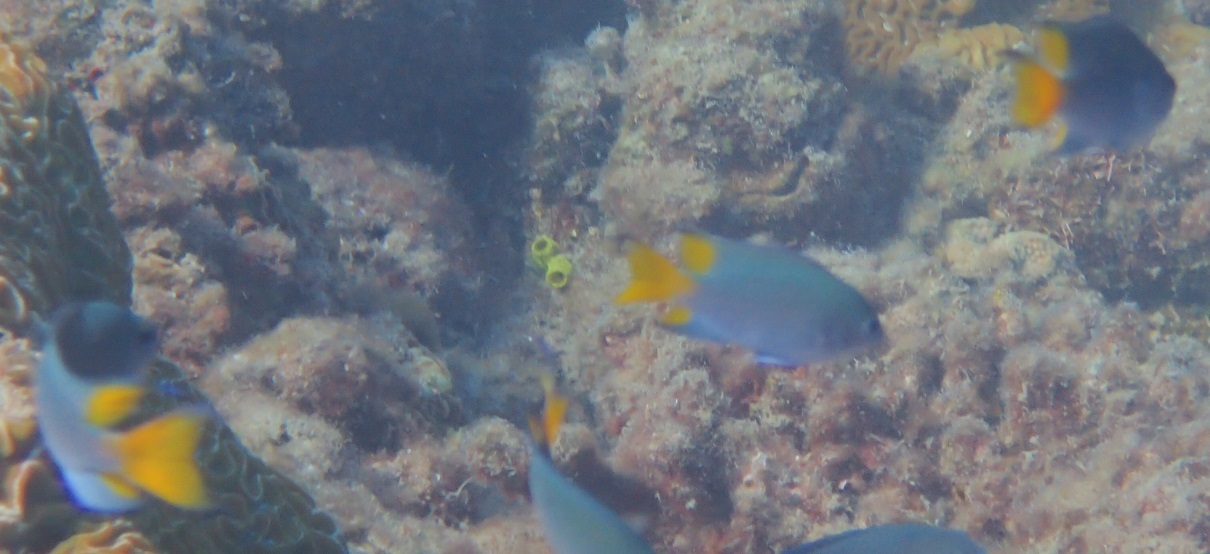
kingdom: Animalia
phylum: Chordata
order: Perciformes
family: Pomacentridae
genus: Neopomacentrus
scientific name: Neopomacentrus bankieri
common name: Chinese damsel
